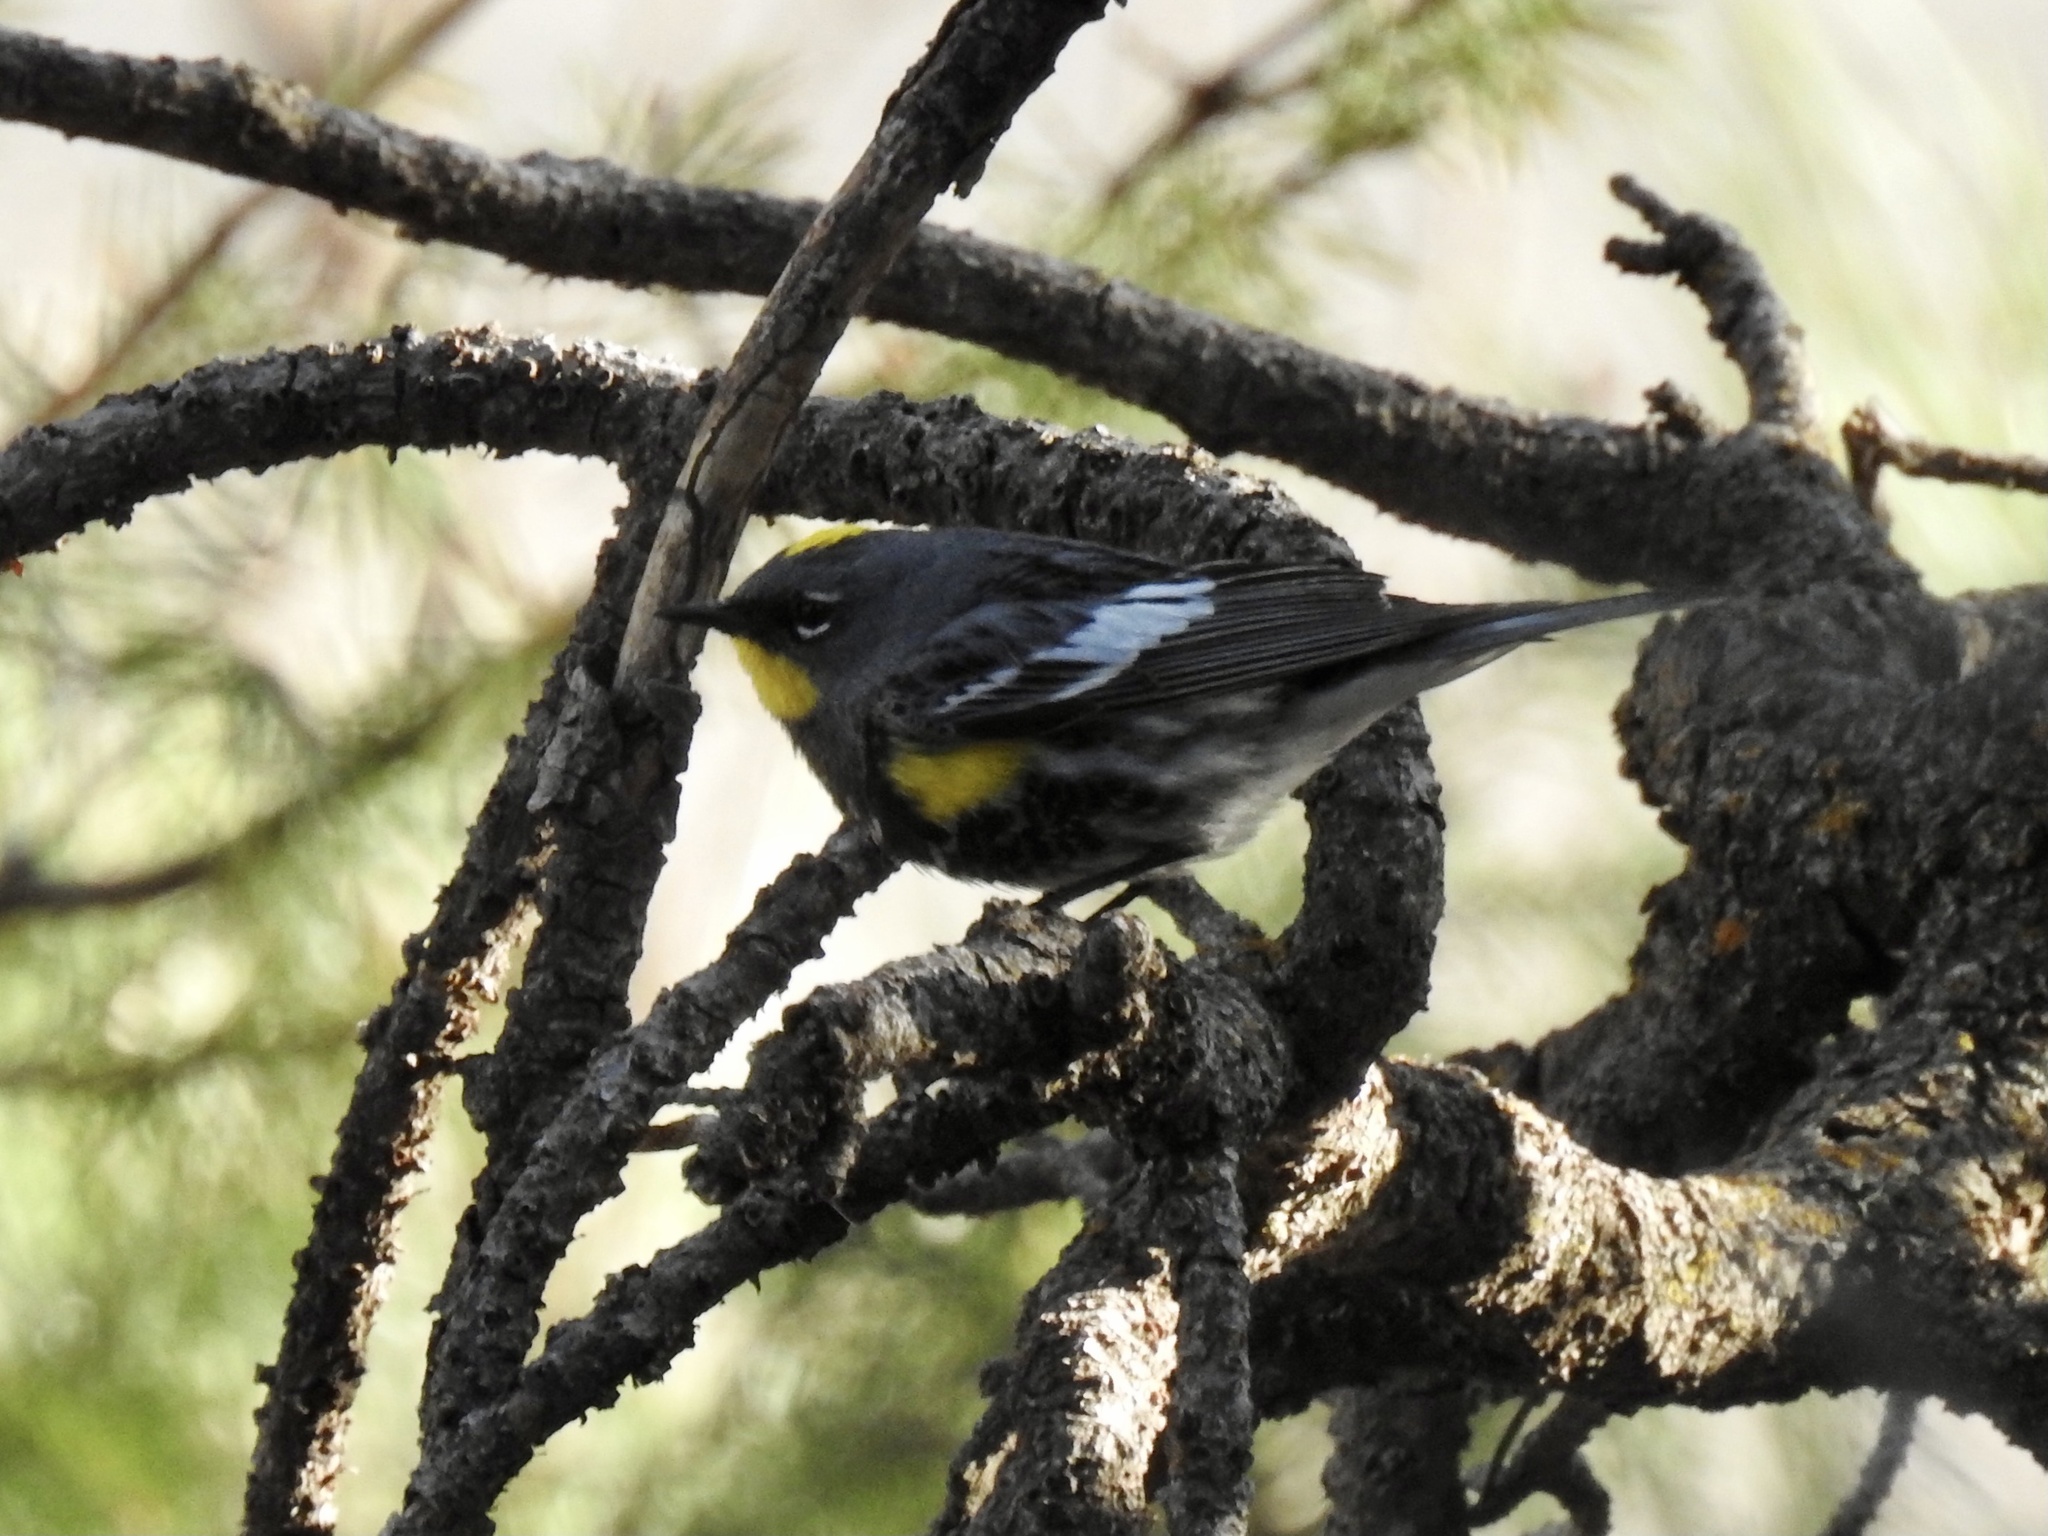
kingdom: Animalia
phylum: Chordata
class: Aves
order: Passeriformes
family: Parulidae
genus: Setophaga
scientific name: Setophaga coronata
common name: Myrtle warbler
